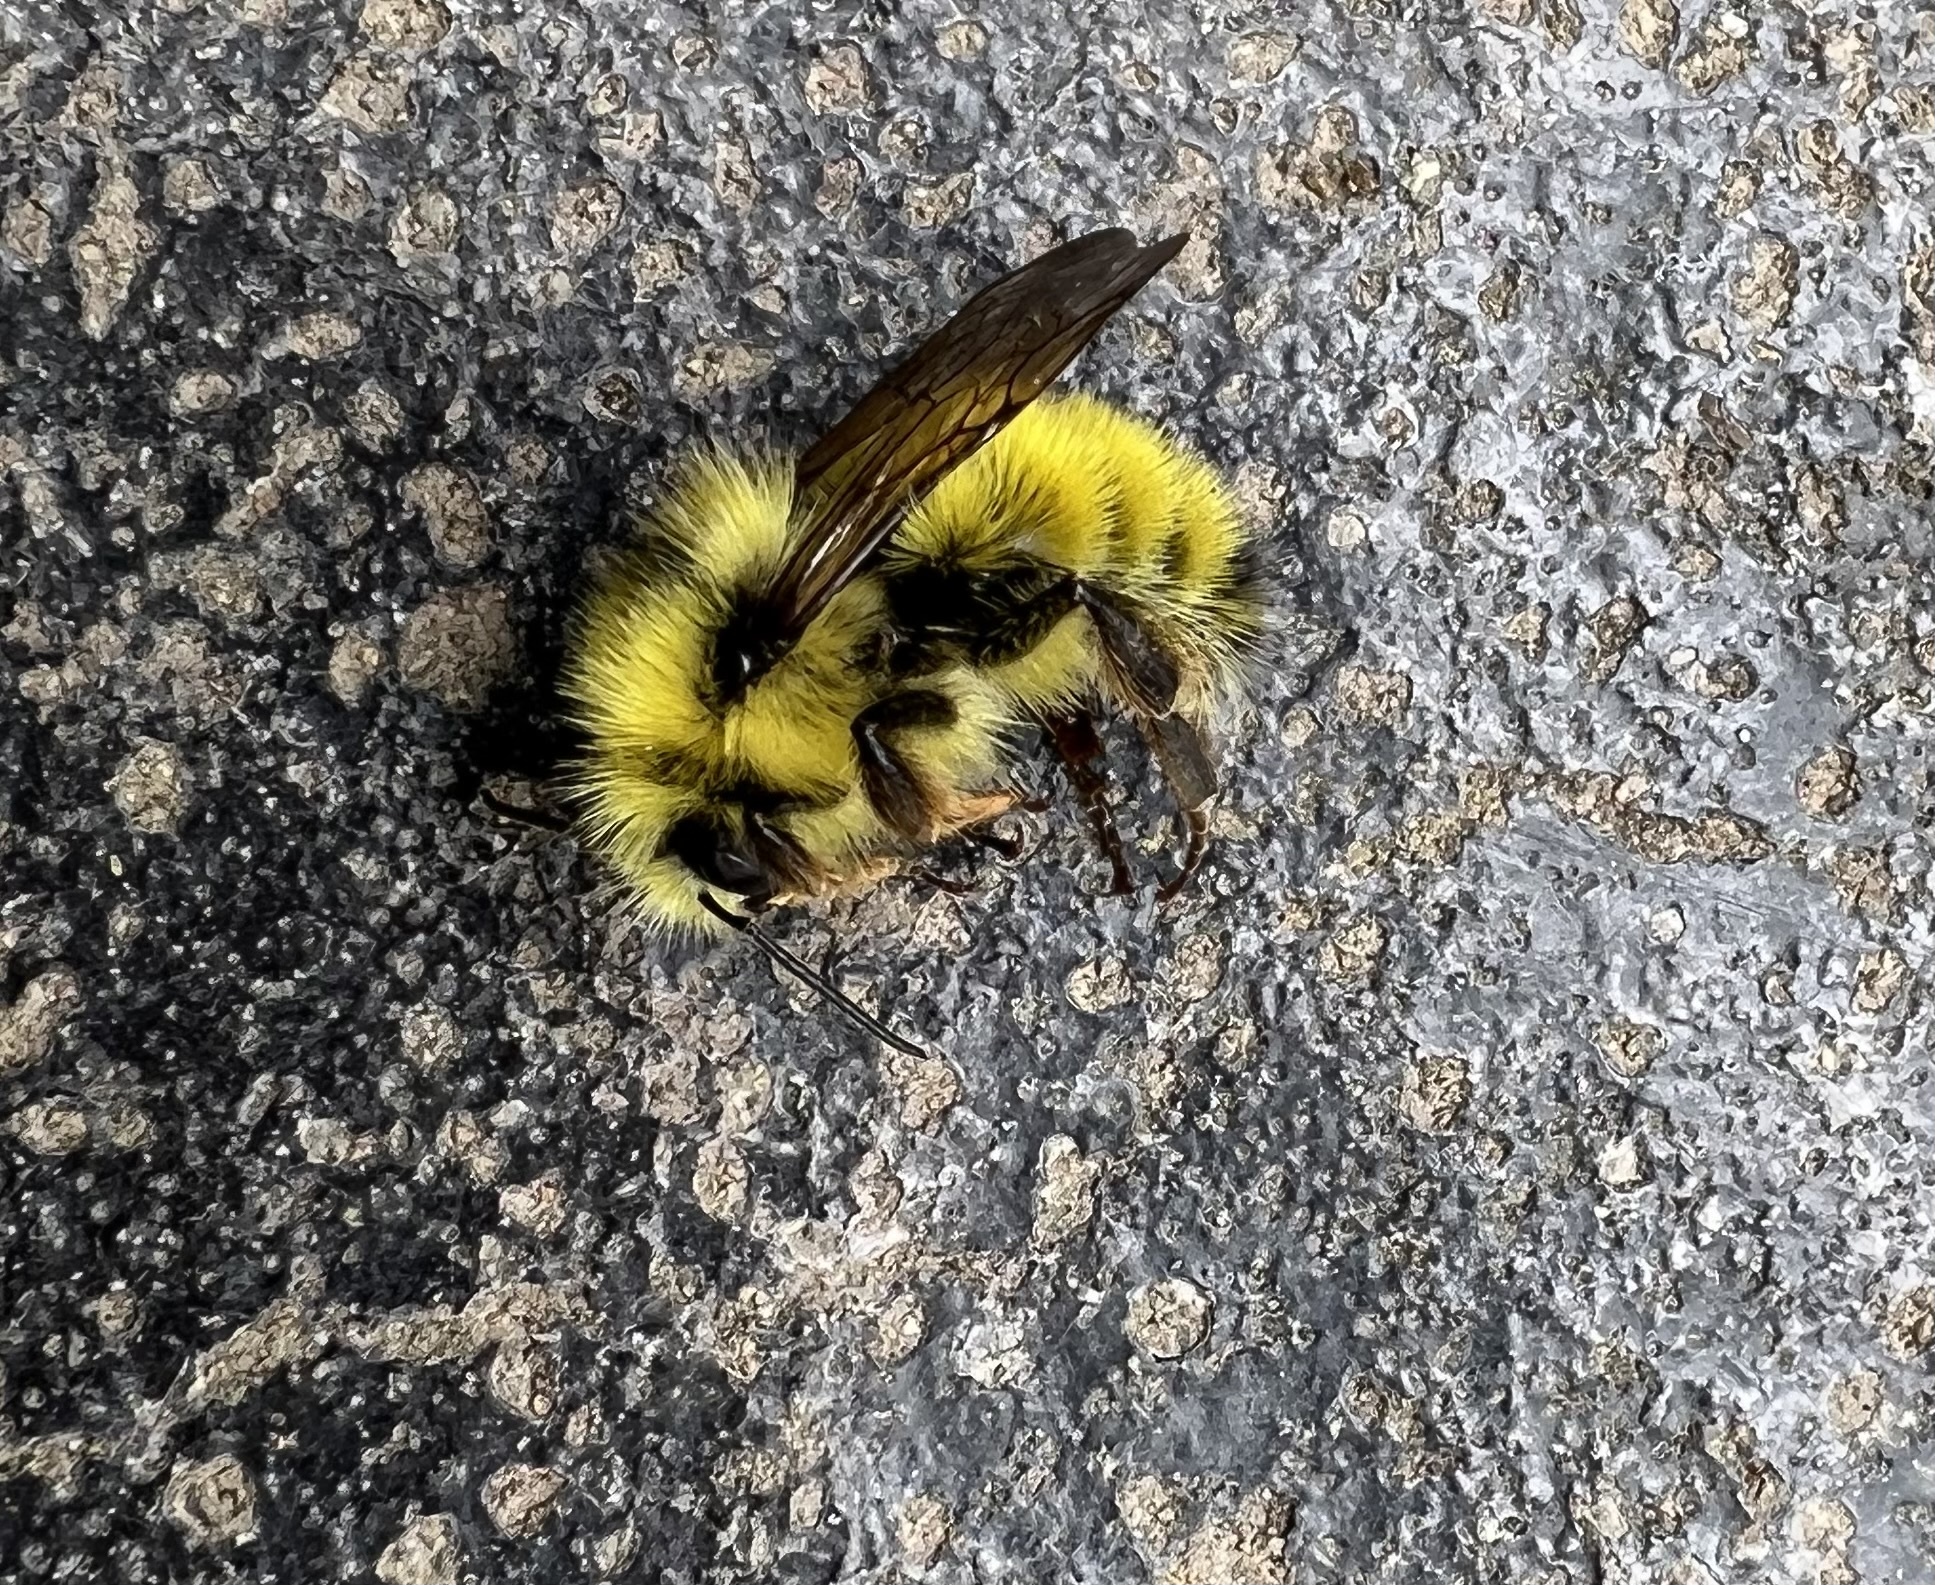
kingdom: Animalia
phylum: Arthropoda
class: Insecta
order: Hymenoptera
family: Apidae
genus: Bombus
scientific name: Bombus vandykei
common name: Van dyke bumble bee
